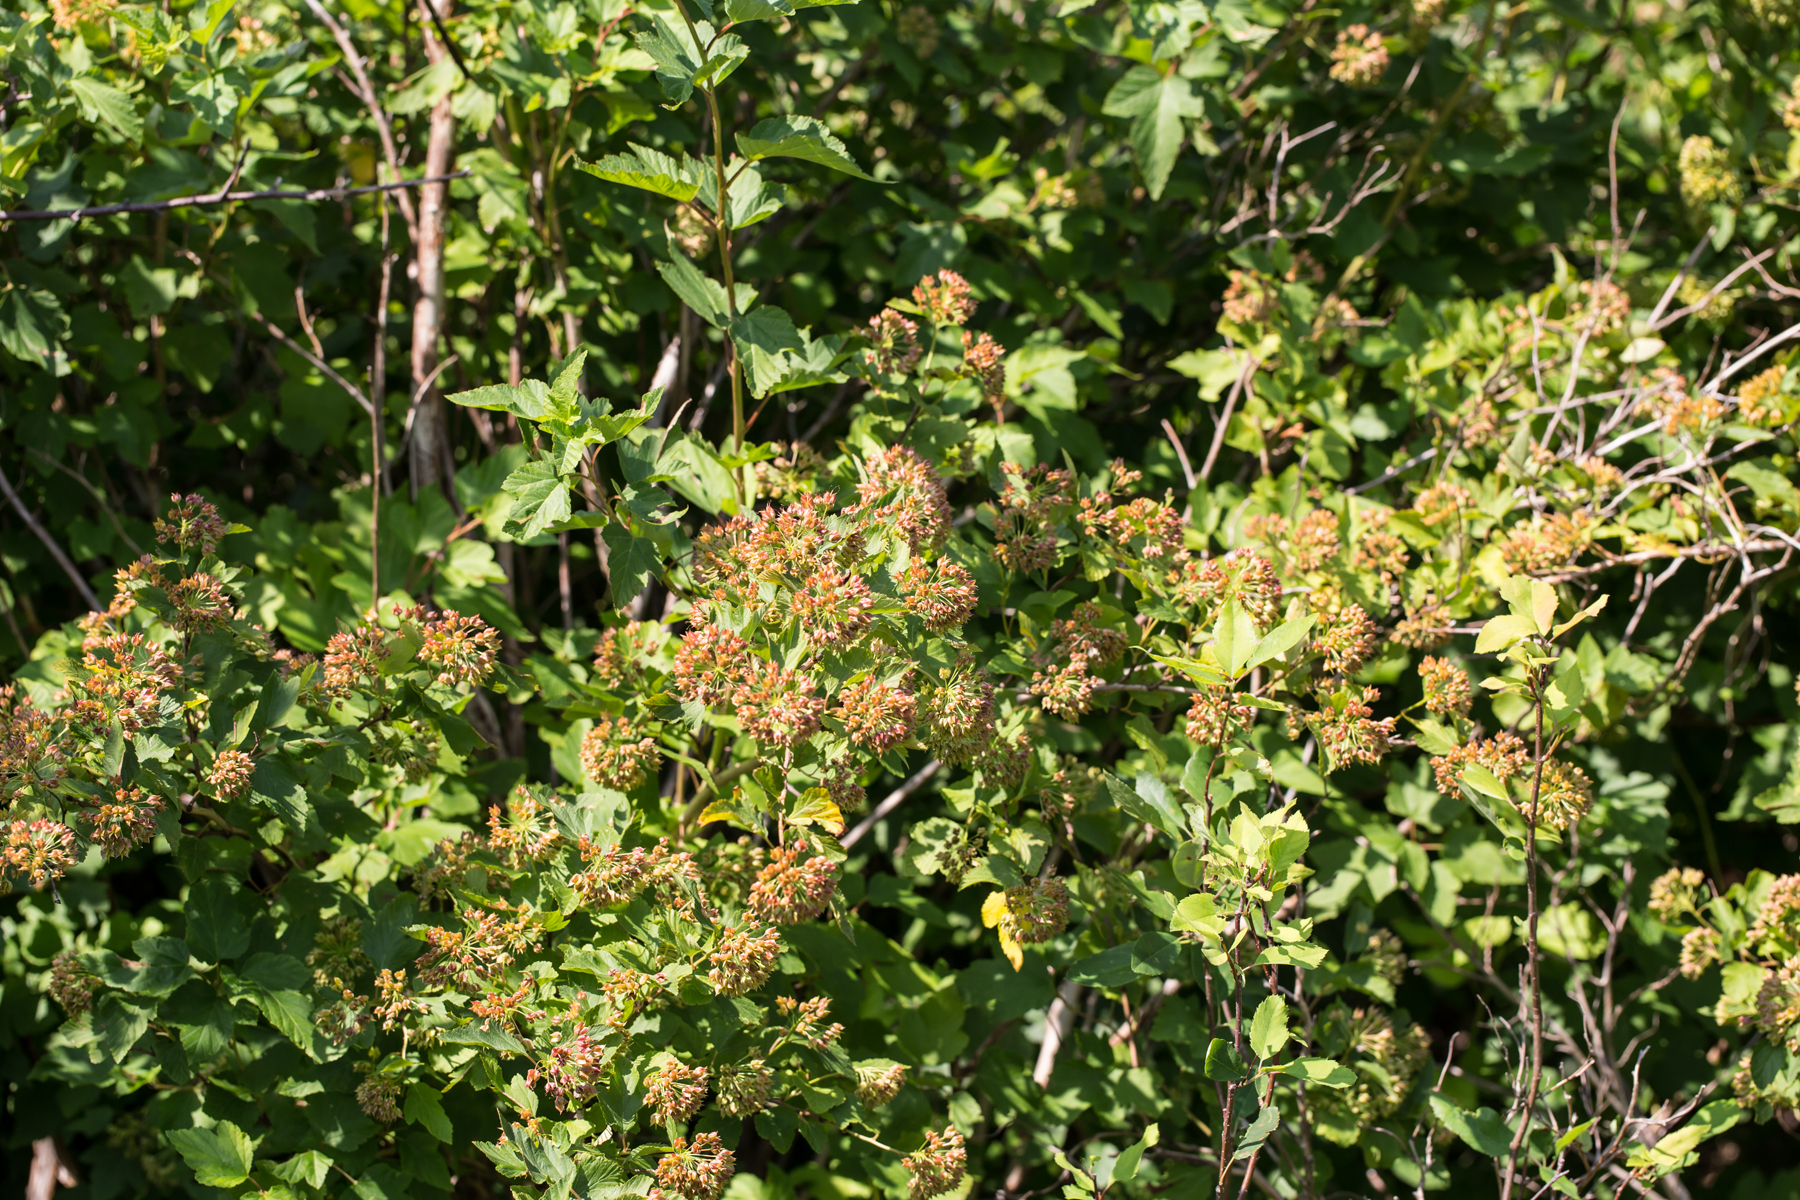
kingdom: Plantae
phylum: Tracheophyta
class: Magnoliopsida
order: Rosales
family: Rosaceae
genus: Physocarpus
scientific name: Physocarpus opulifolius
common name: Ninebark
